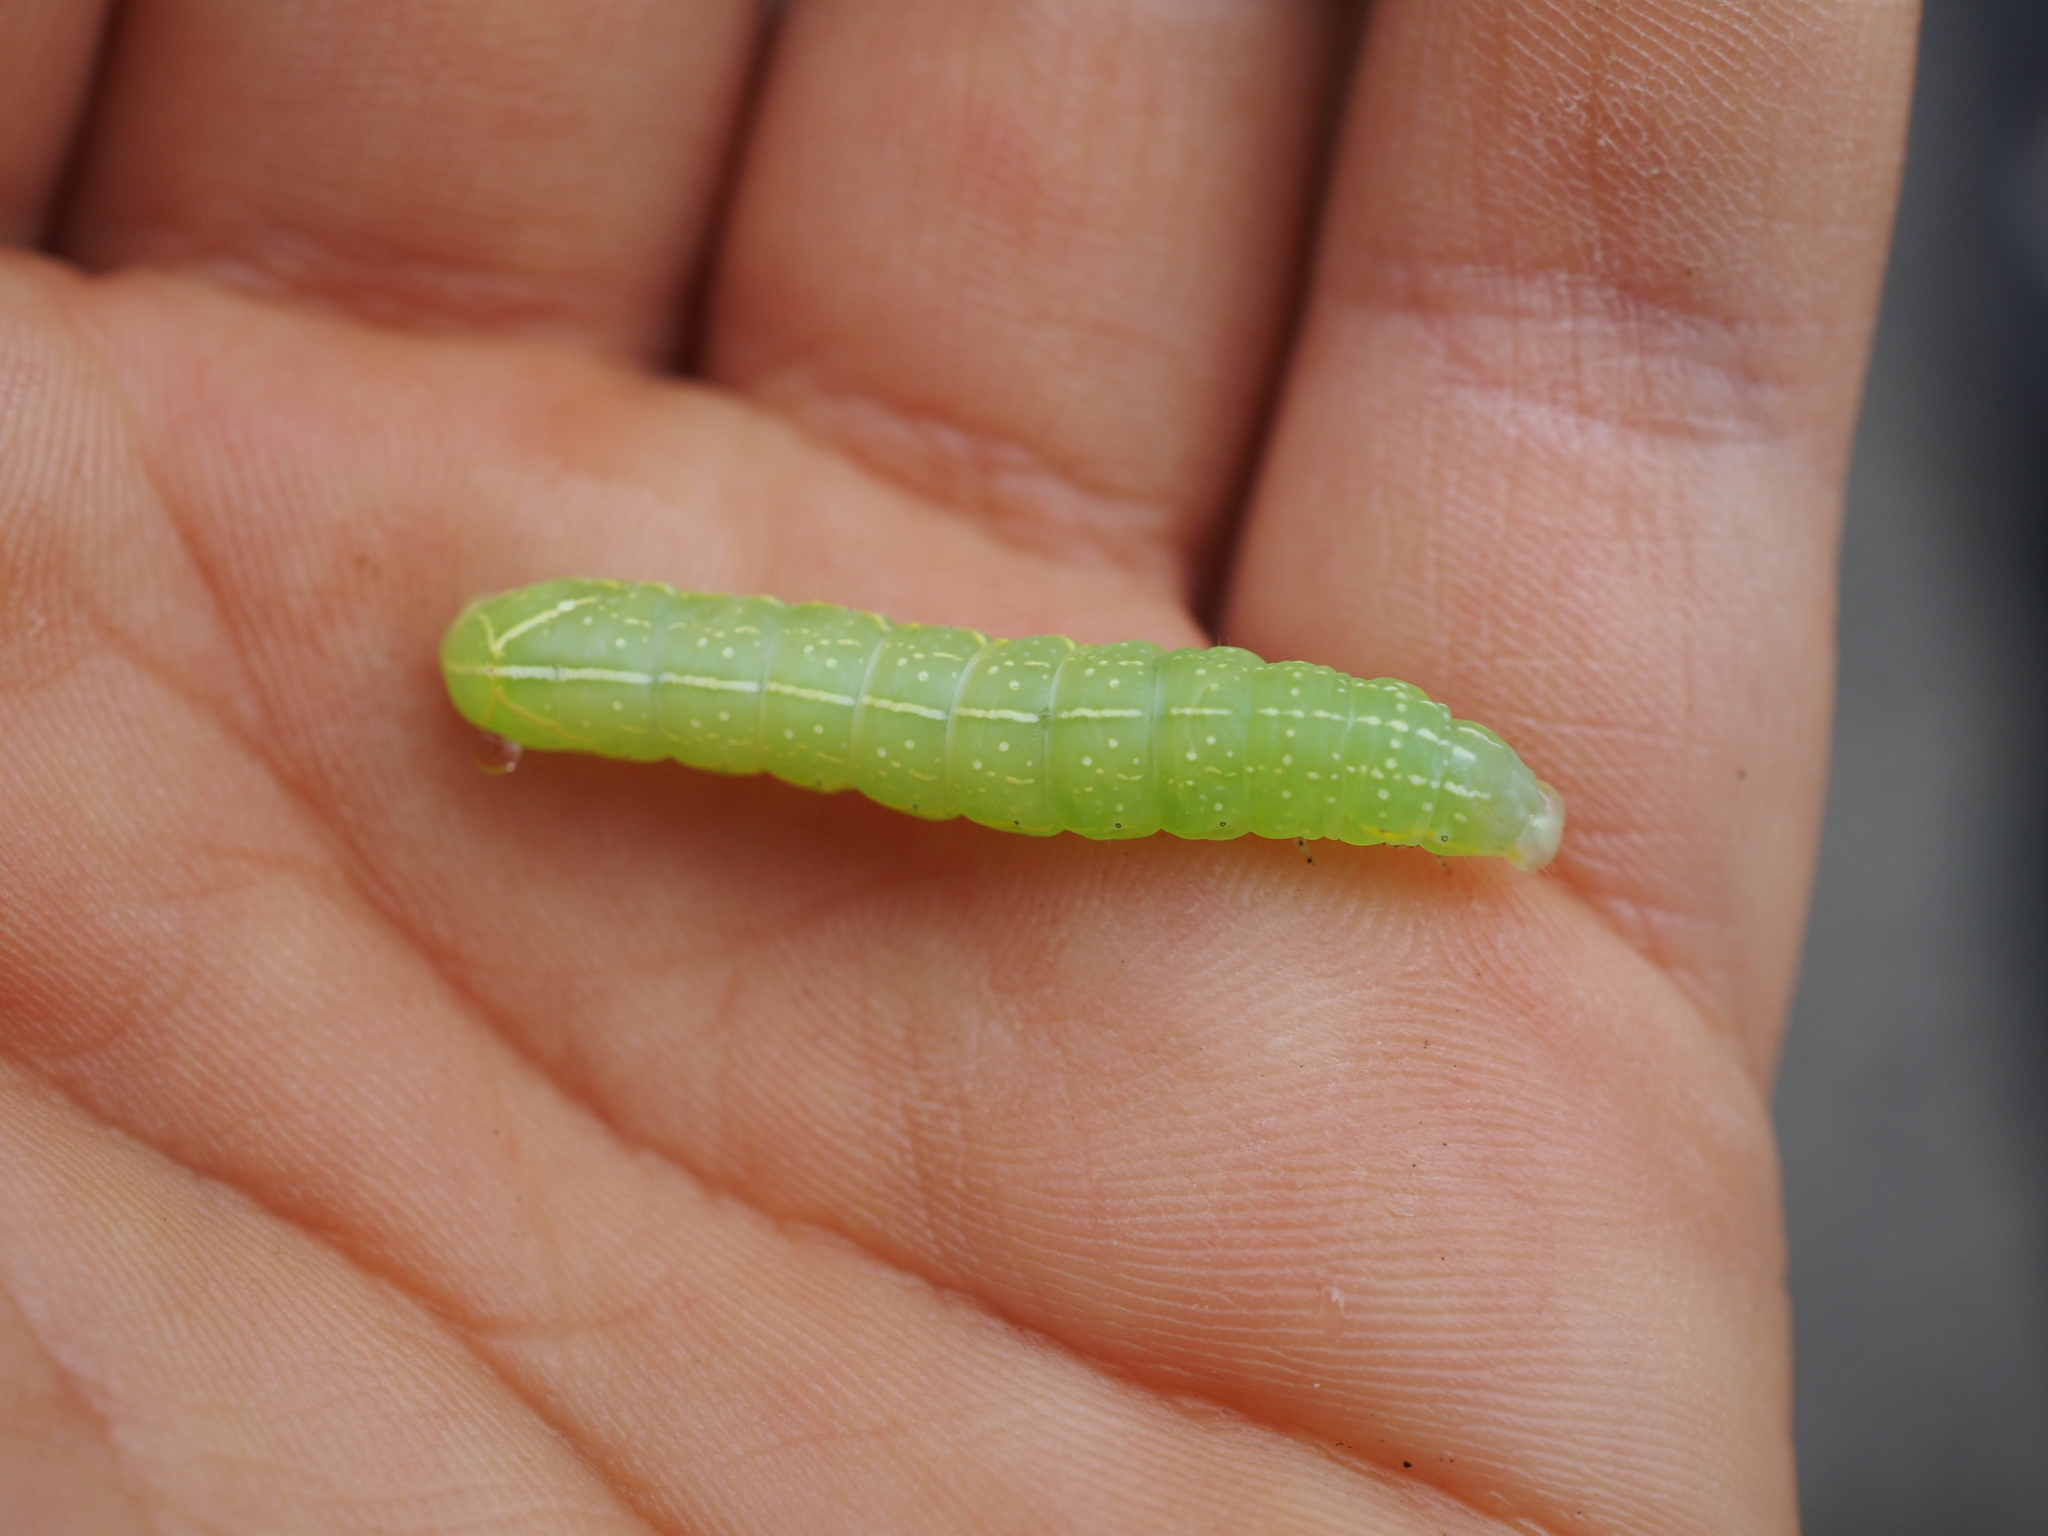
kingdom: Animalia
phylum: Arthropoda
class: Insecta
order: Lepidoptera
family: Noctuidae
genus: Amphipyra
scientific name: Amphipyra pyramidea
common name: Copper underwing
